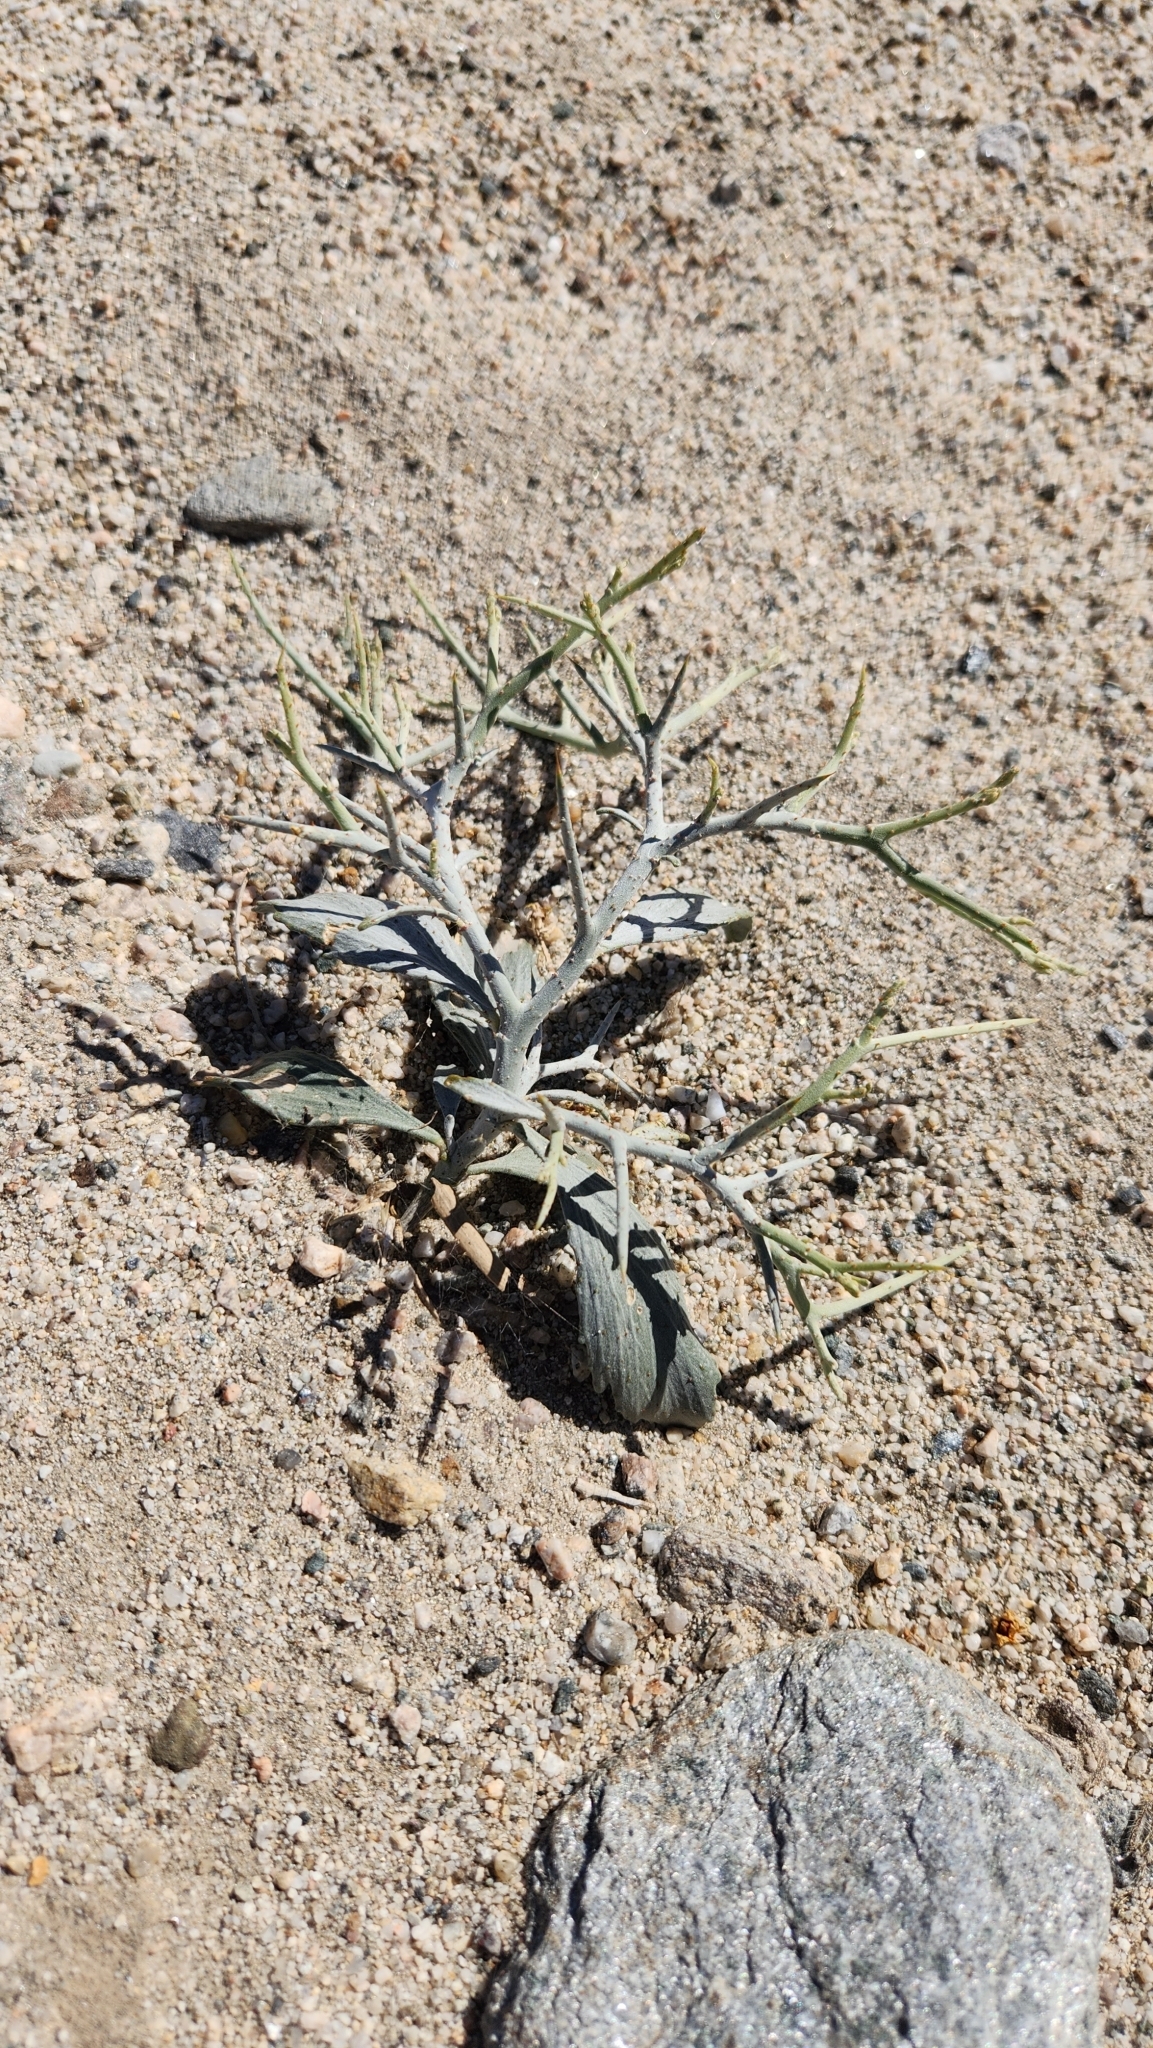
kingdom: Plantae
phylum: Tracheophyta
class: Magnoliopsida
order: Fabales
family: Fabaceae
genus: Psorothamnus
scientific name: Psorothamnus spinosus
